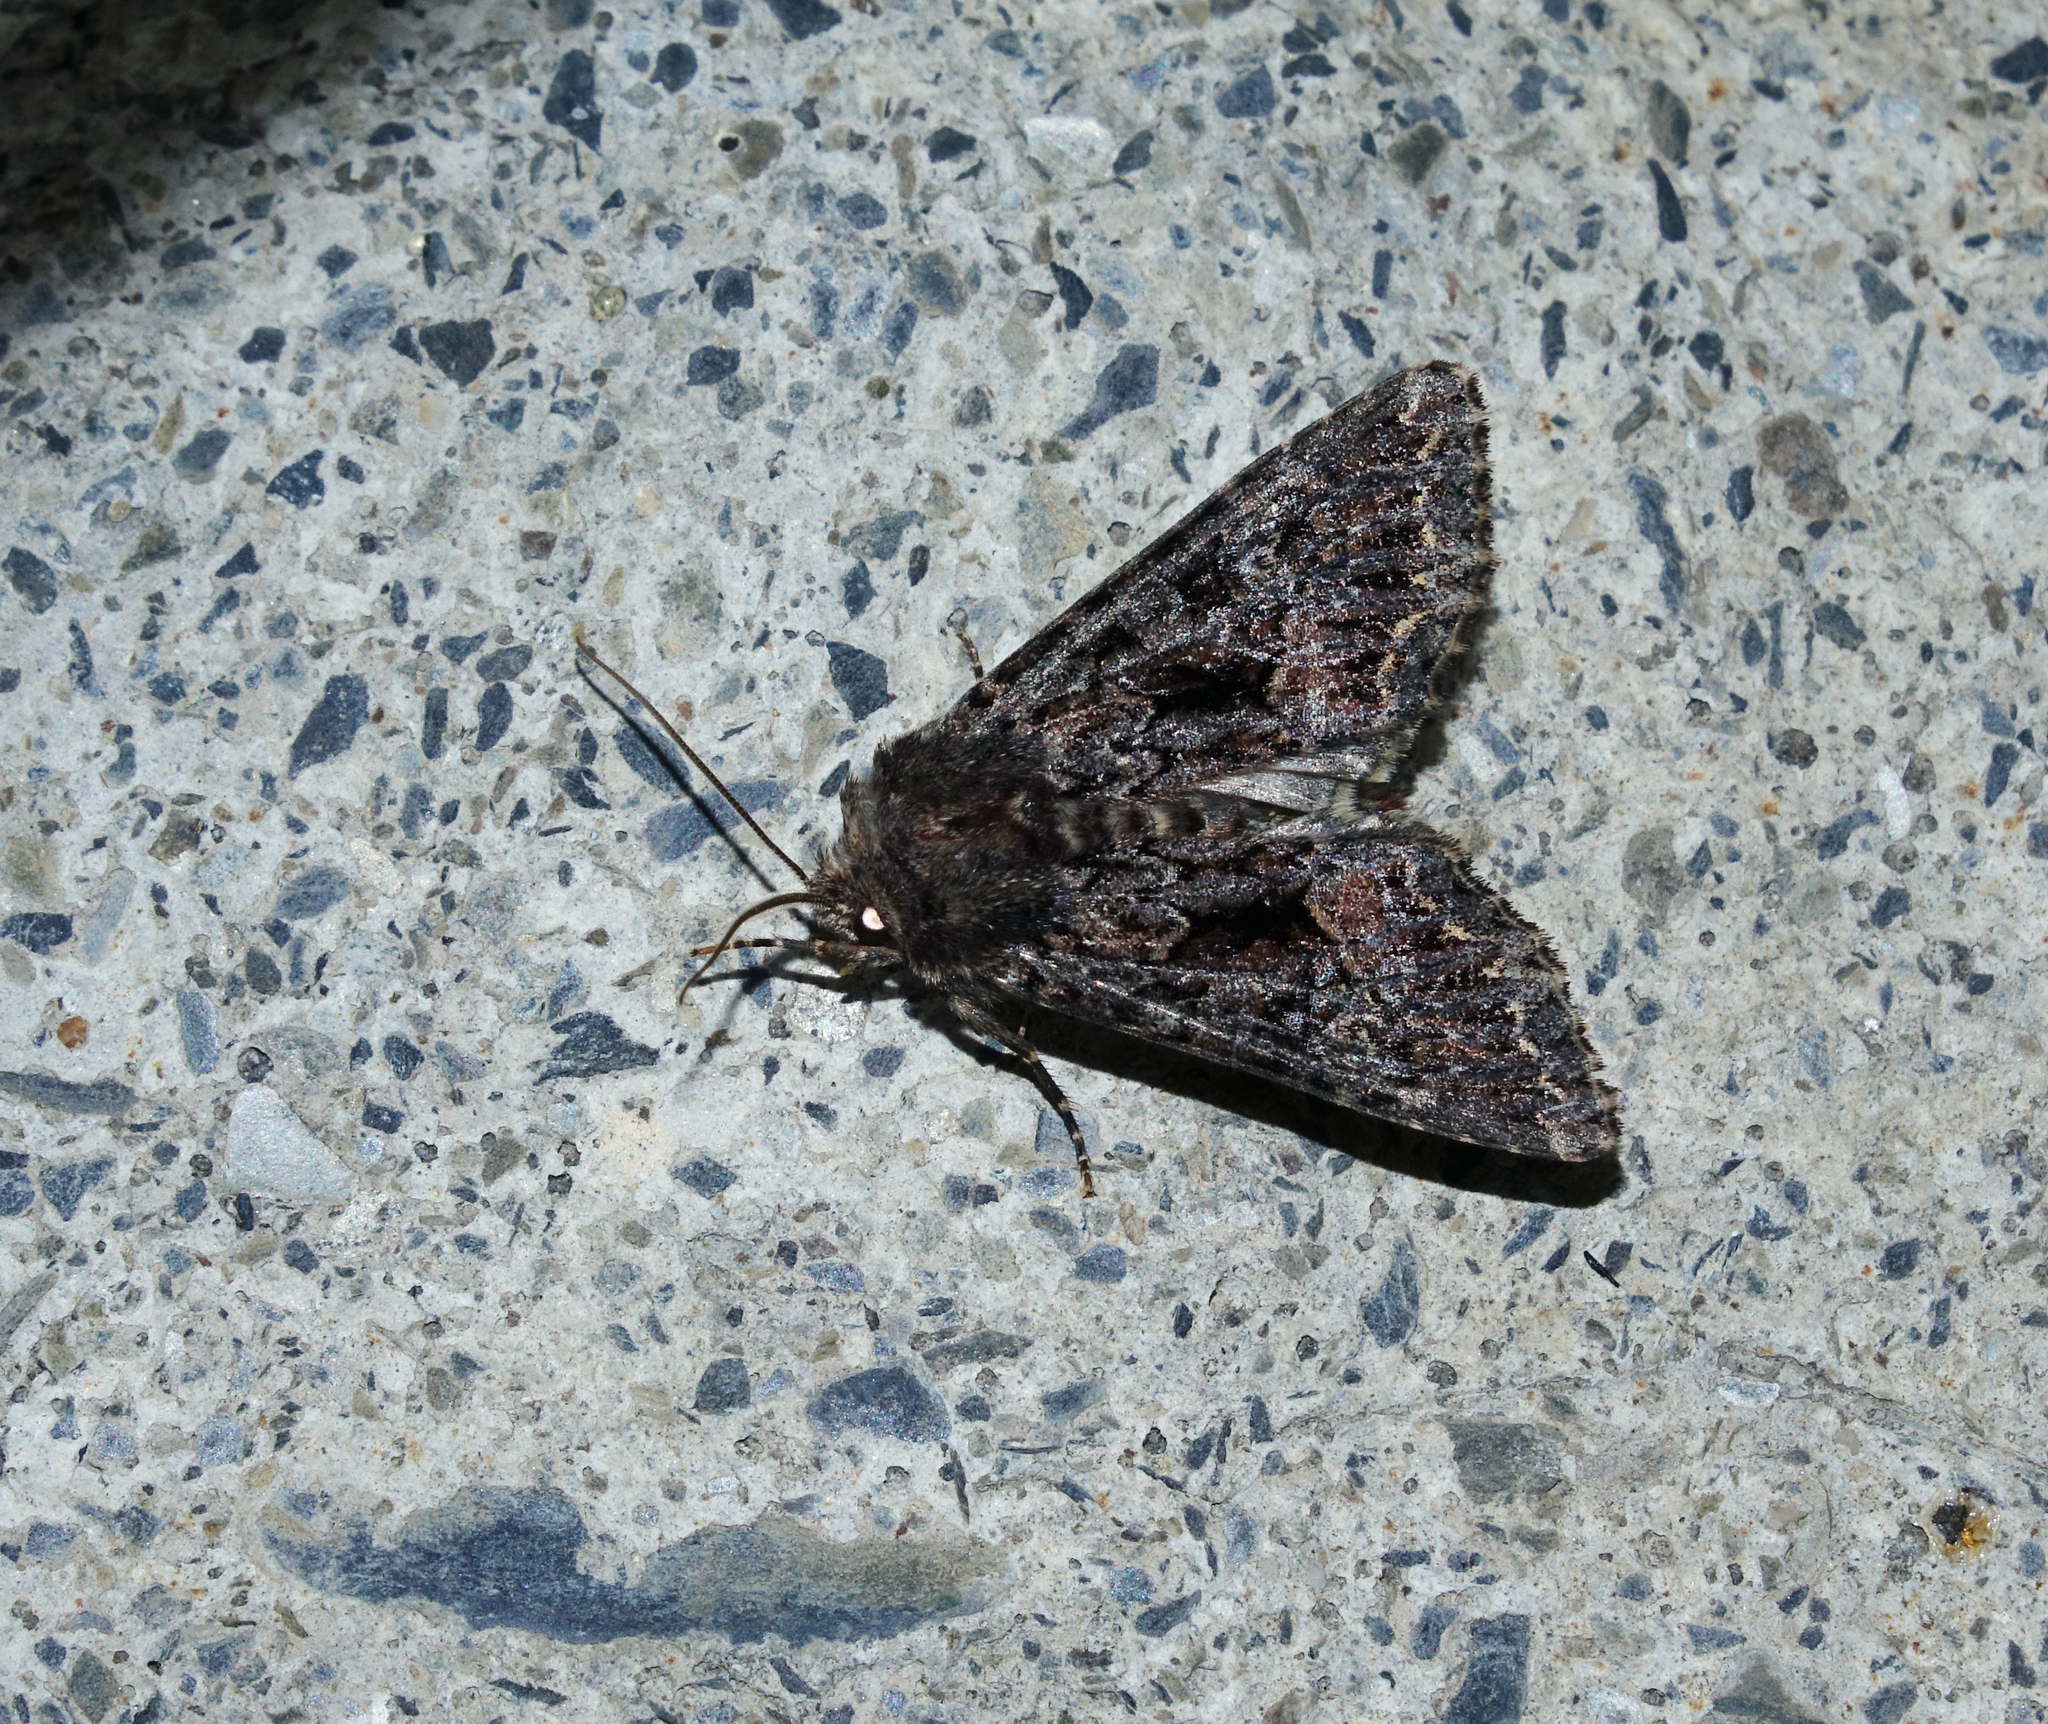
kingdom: Animalia
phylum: Arthropoda
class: Insecta
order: Lepidoptera
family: Noctuidae
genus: Mniotype
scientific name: Mniotype adusta
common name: Dark brocade
